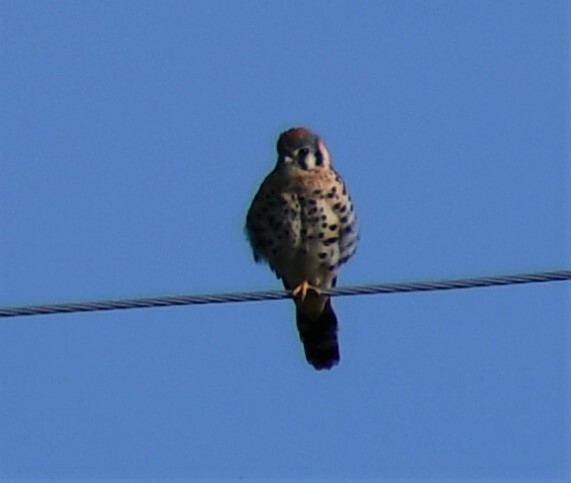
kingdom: Animalia
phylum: Chordata
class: Aves
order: Falconiformes
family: Falconidae
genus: Falco
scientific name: Falco sparverius
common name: American kestrel
